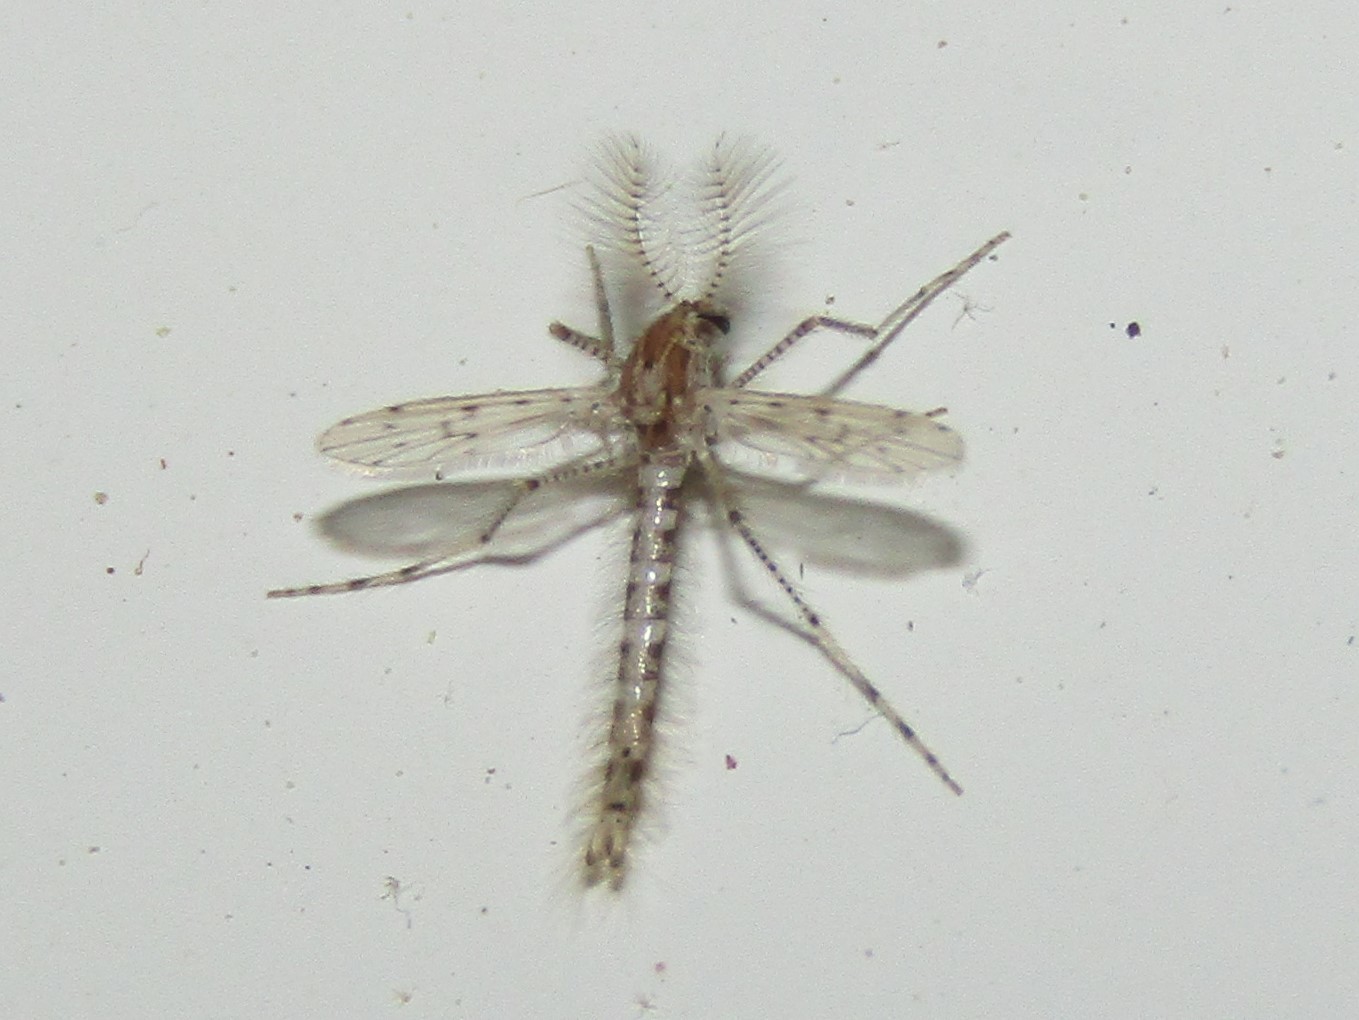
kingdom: Animalia
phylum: Arthropoda
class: Insecta
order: Diptera
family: Chaoboridae
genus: Chaoborus
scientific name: Chaoborus punctipennis
